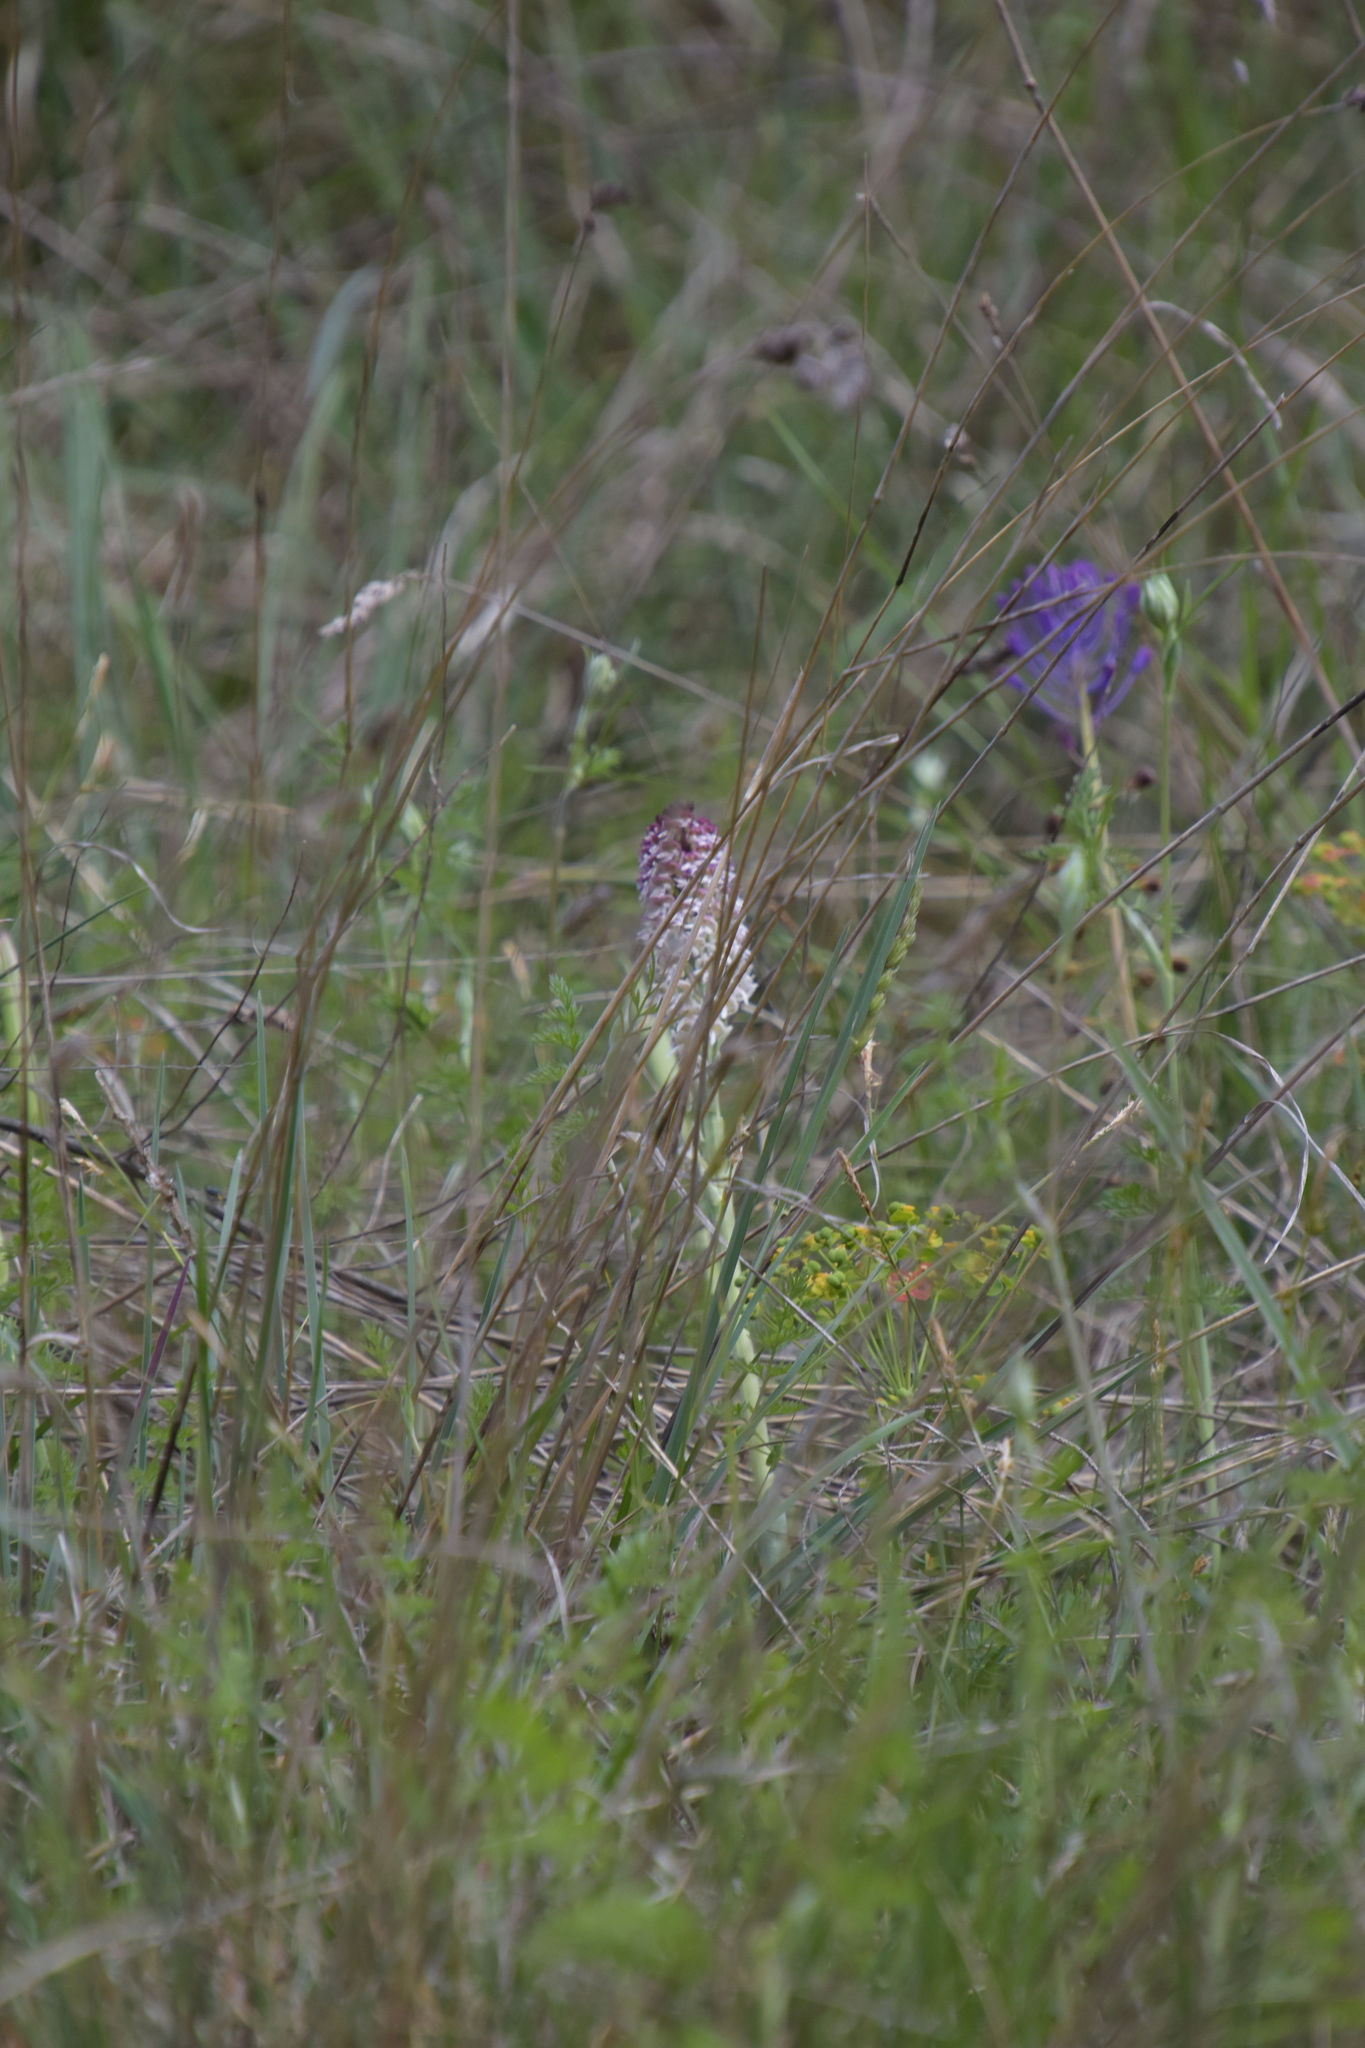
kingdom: Plantae
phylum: Tracheophyta
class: Liliopsida
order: Asparagales
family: Orchidaceae
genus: Neotinea
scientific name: Neotinea ustulata
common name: Burnt orchid
